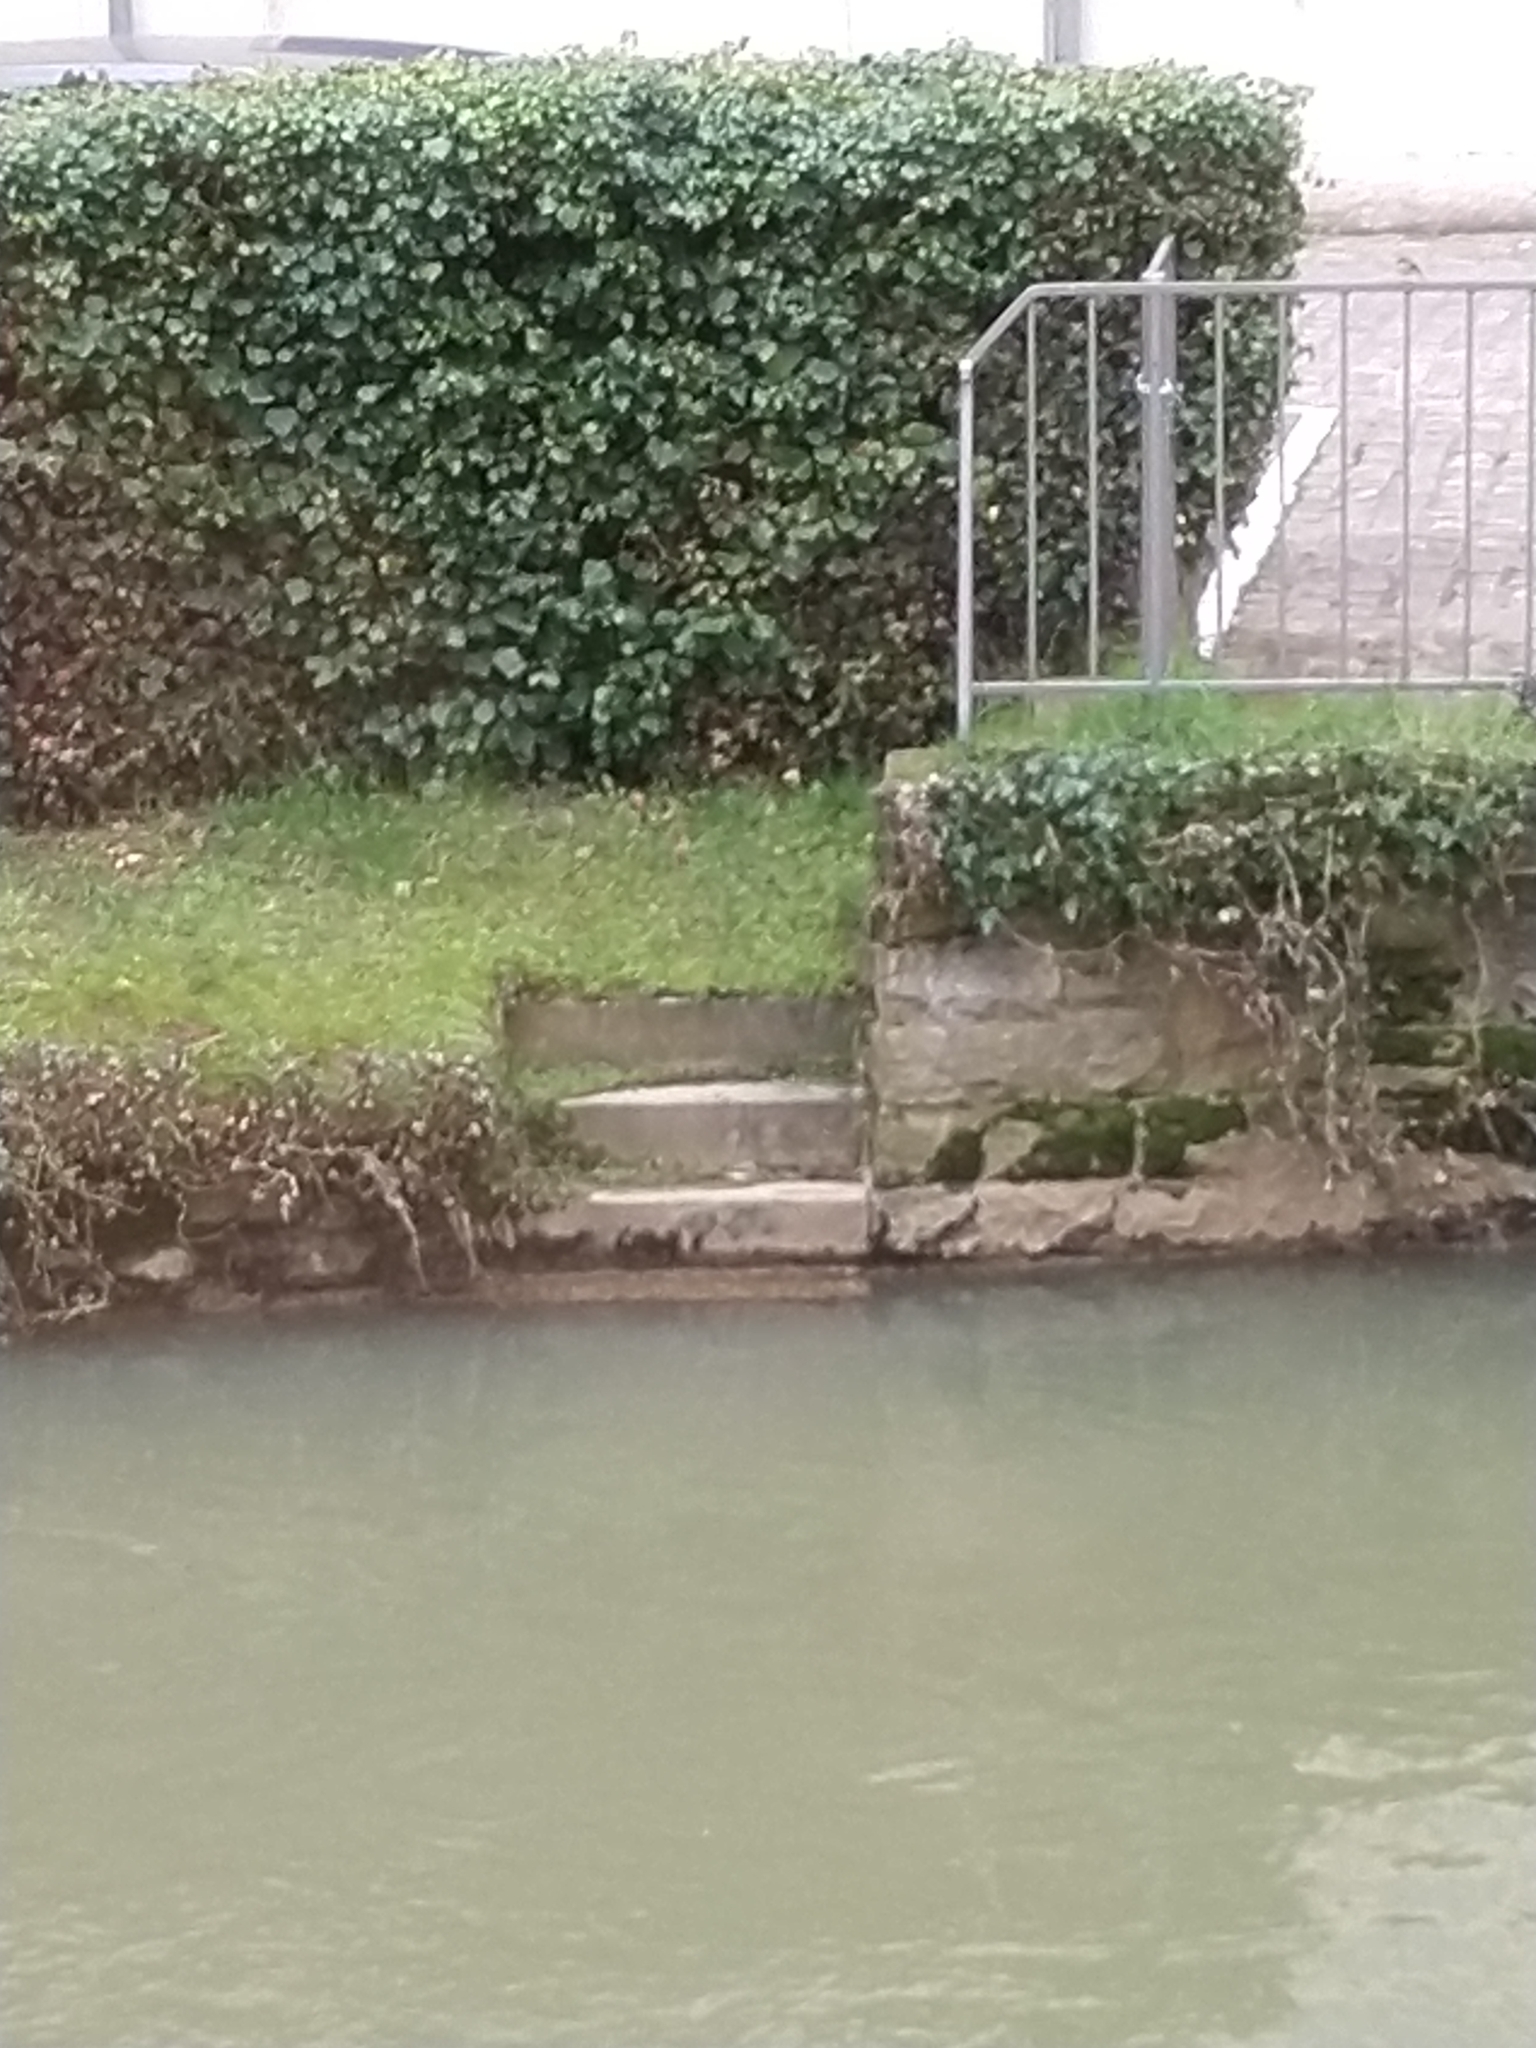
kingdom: Animalia
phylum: Chordata
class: Aves
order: Passeriformes
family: Motacillidae
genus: Motacilla
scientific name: Motacilla cinerea
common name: Grey wagtail
